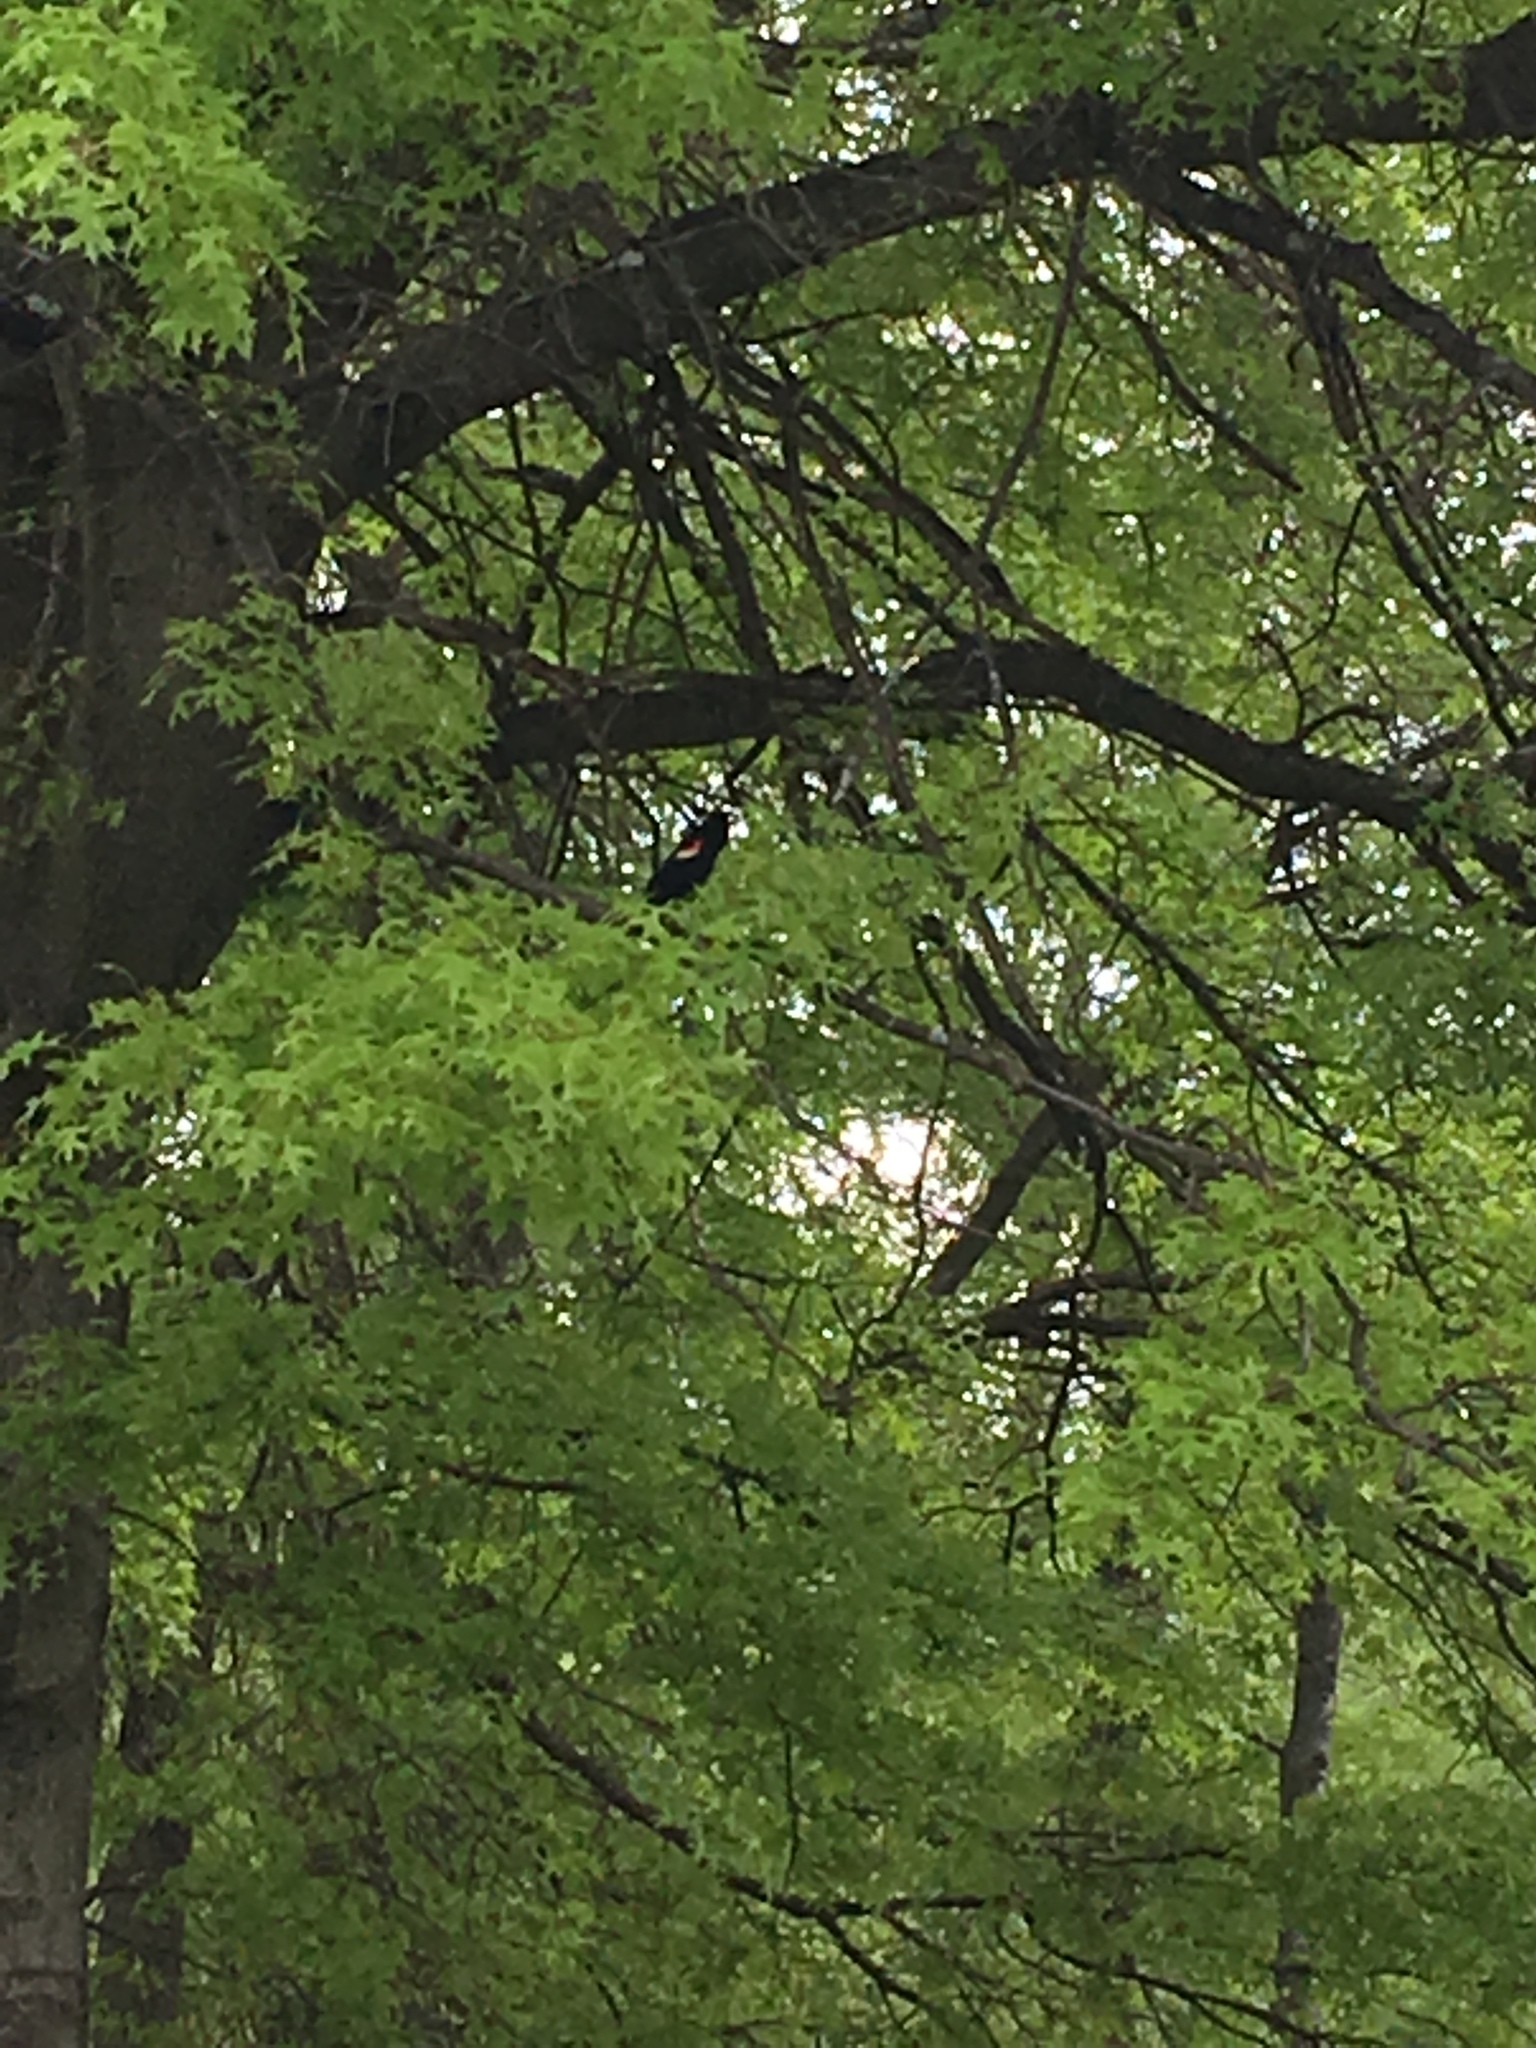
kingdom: Animalia
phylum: Chordata
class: Aves
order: Passeriformes
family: Icteridae
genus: Agelaius
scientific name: Agelaius phoeniceus
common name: Red-winged blackbird
